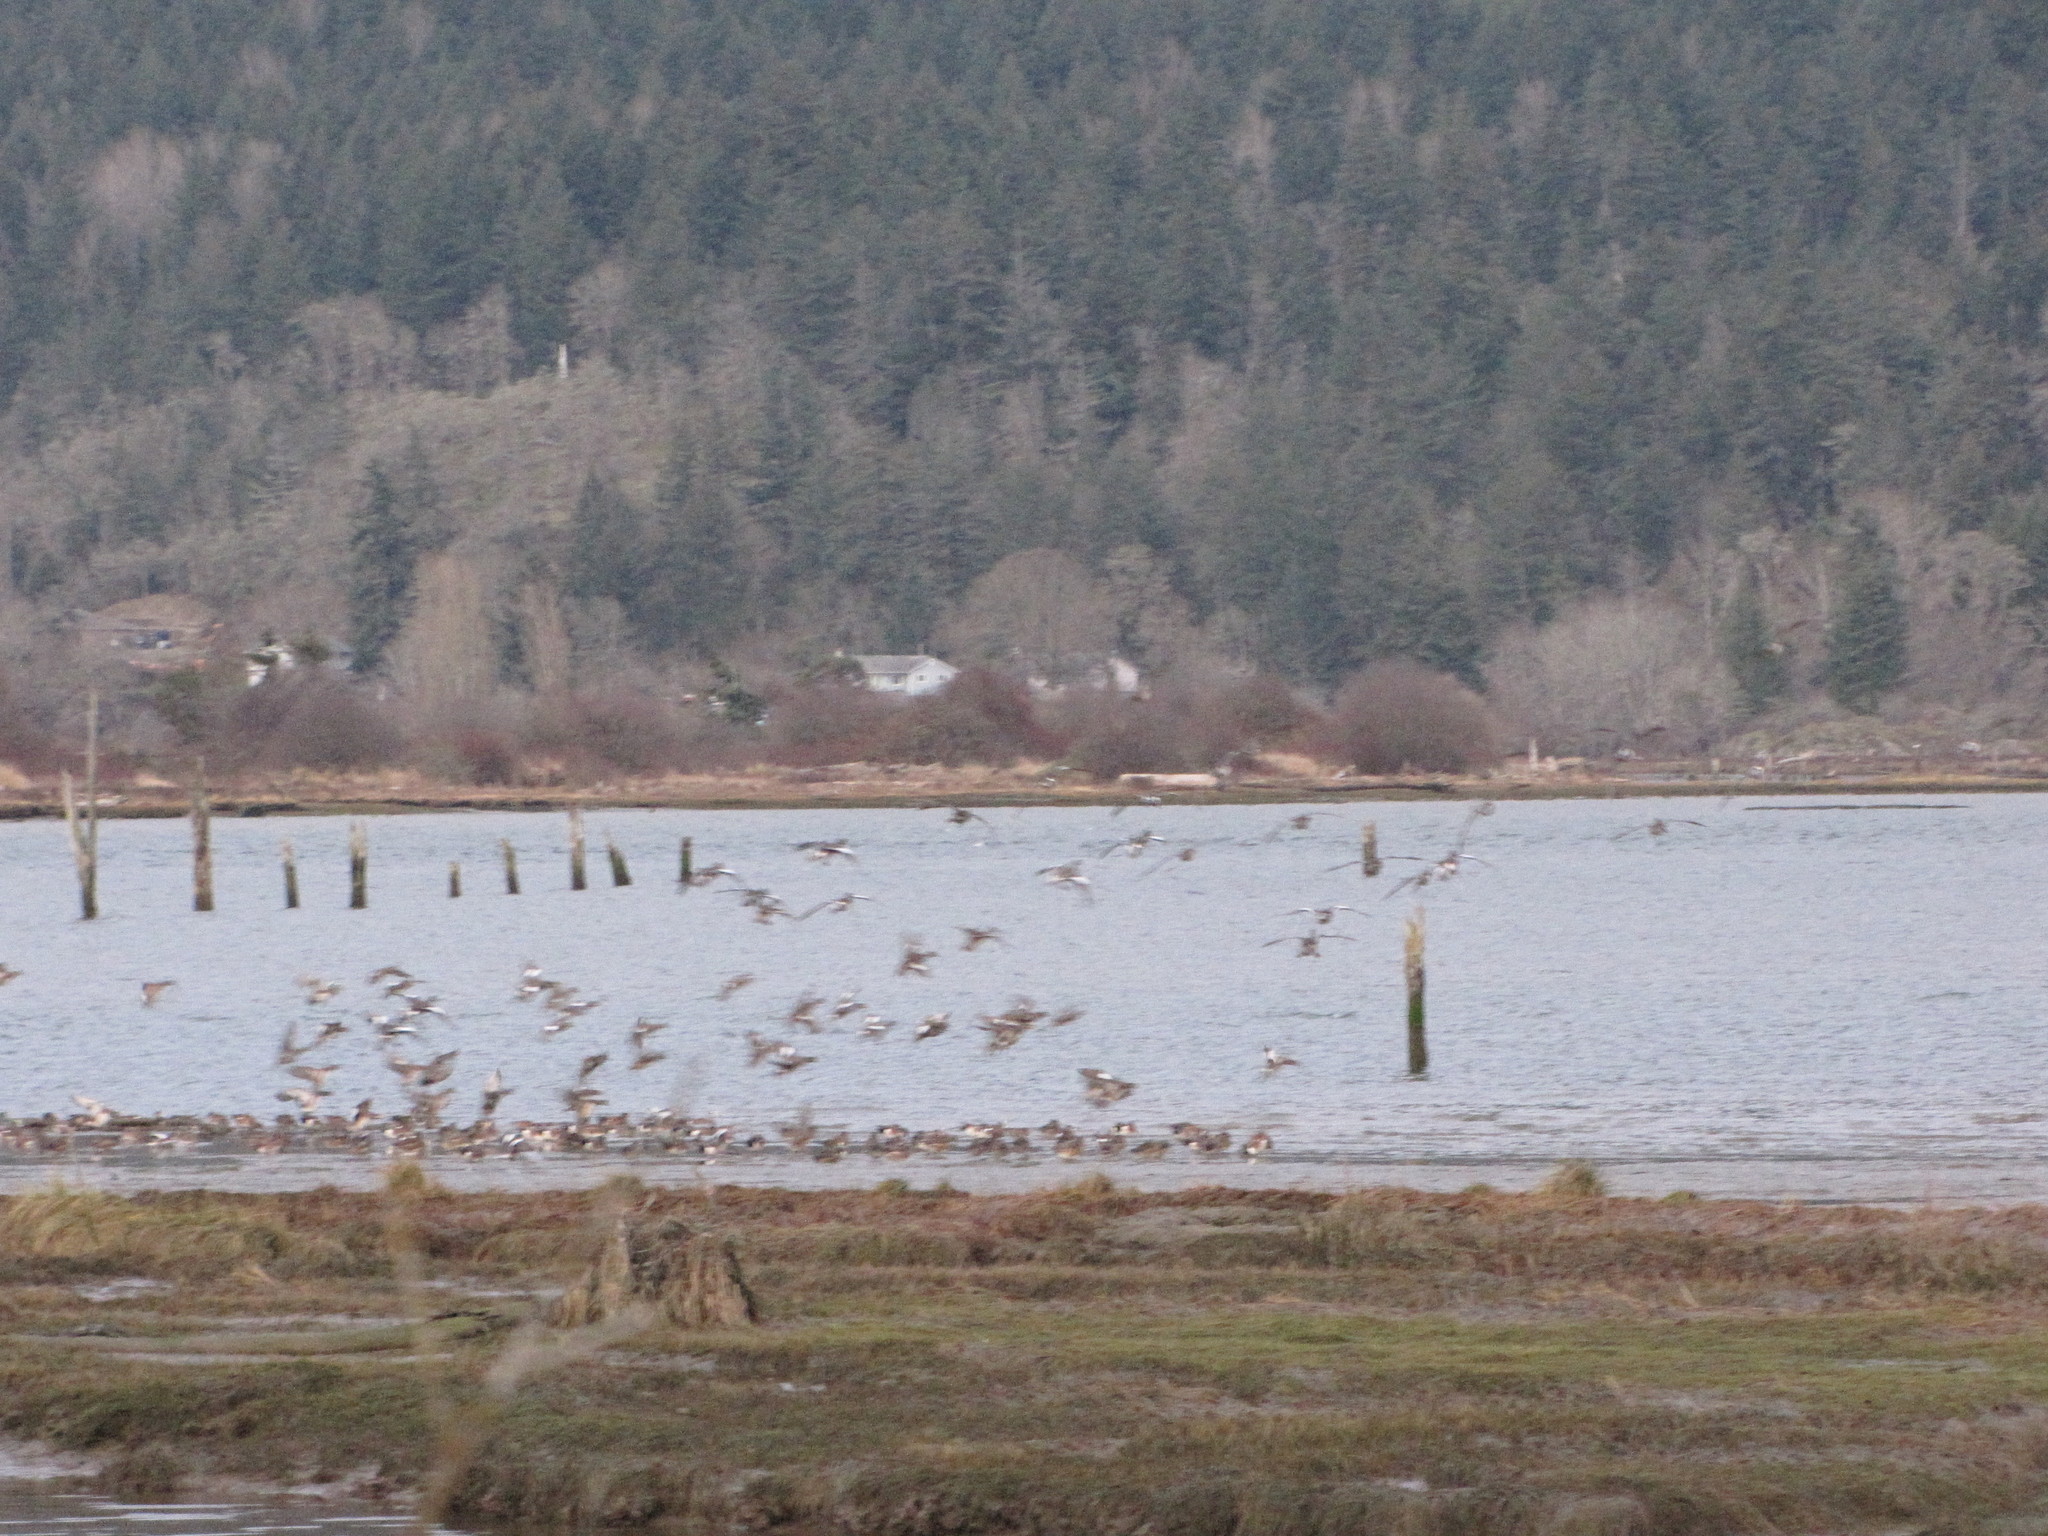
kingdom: Animalia
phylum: Chordata
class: Aves
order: Anseriformes
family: Anatidae
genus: Mareca
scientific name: Mareca americana
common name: American wigeon
